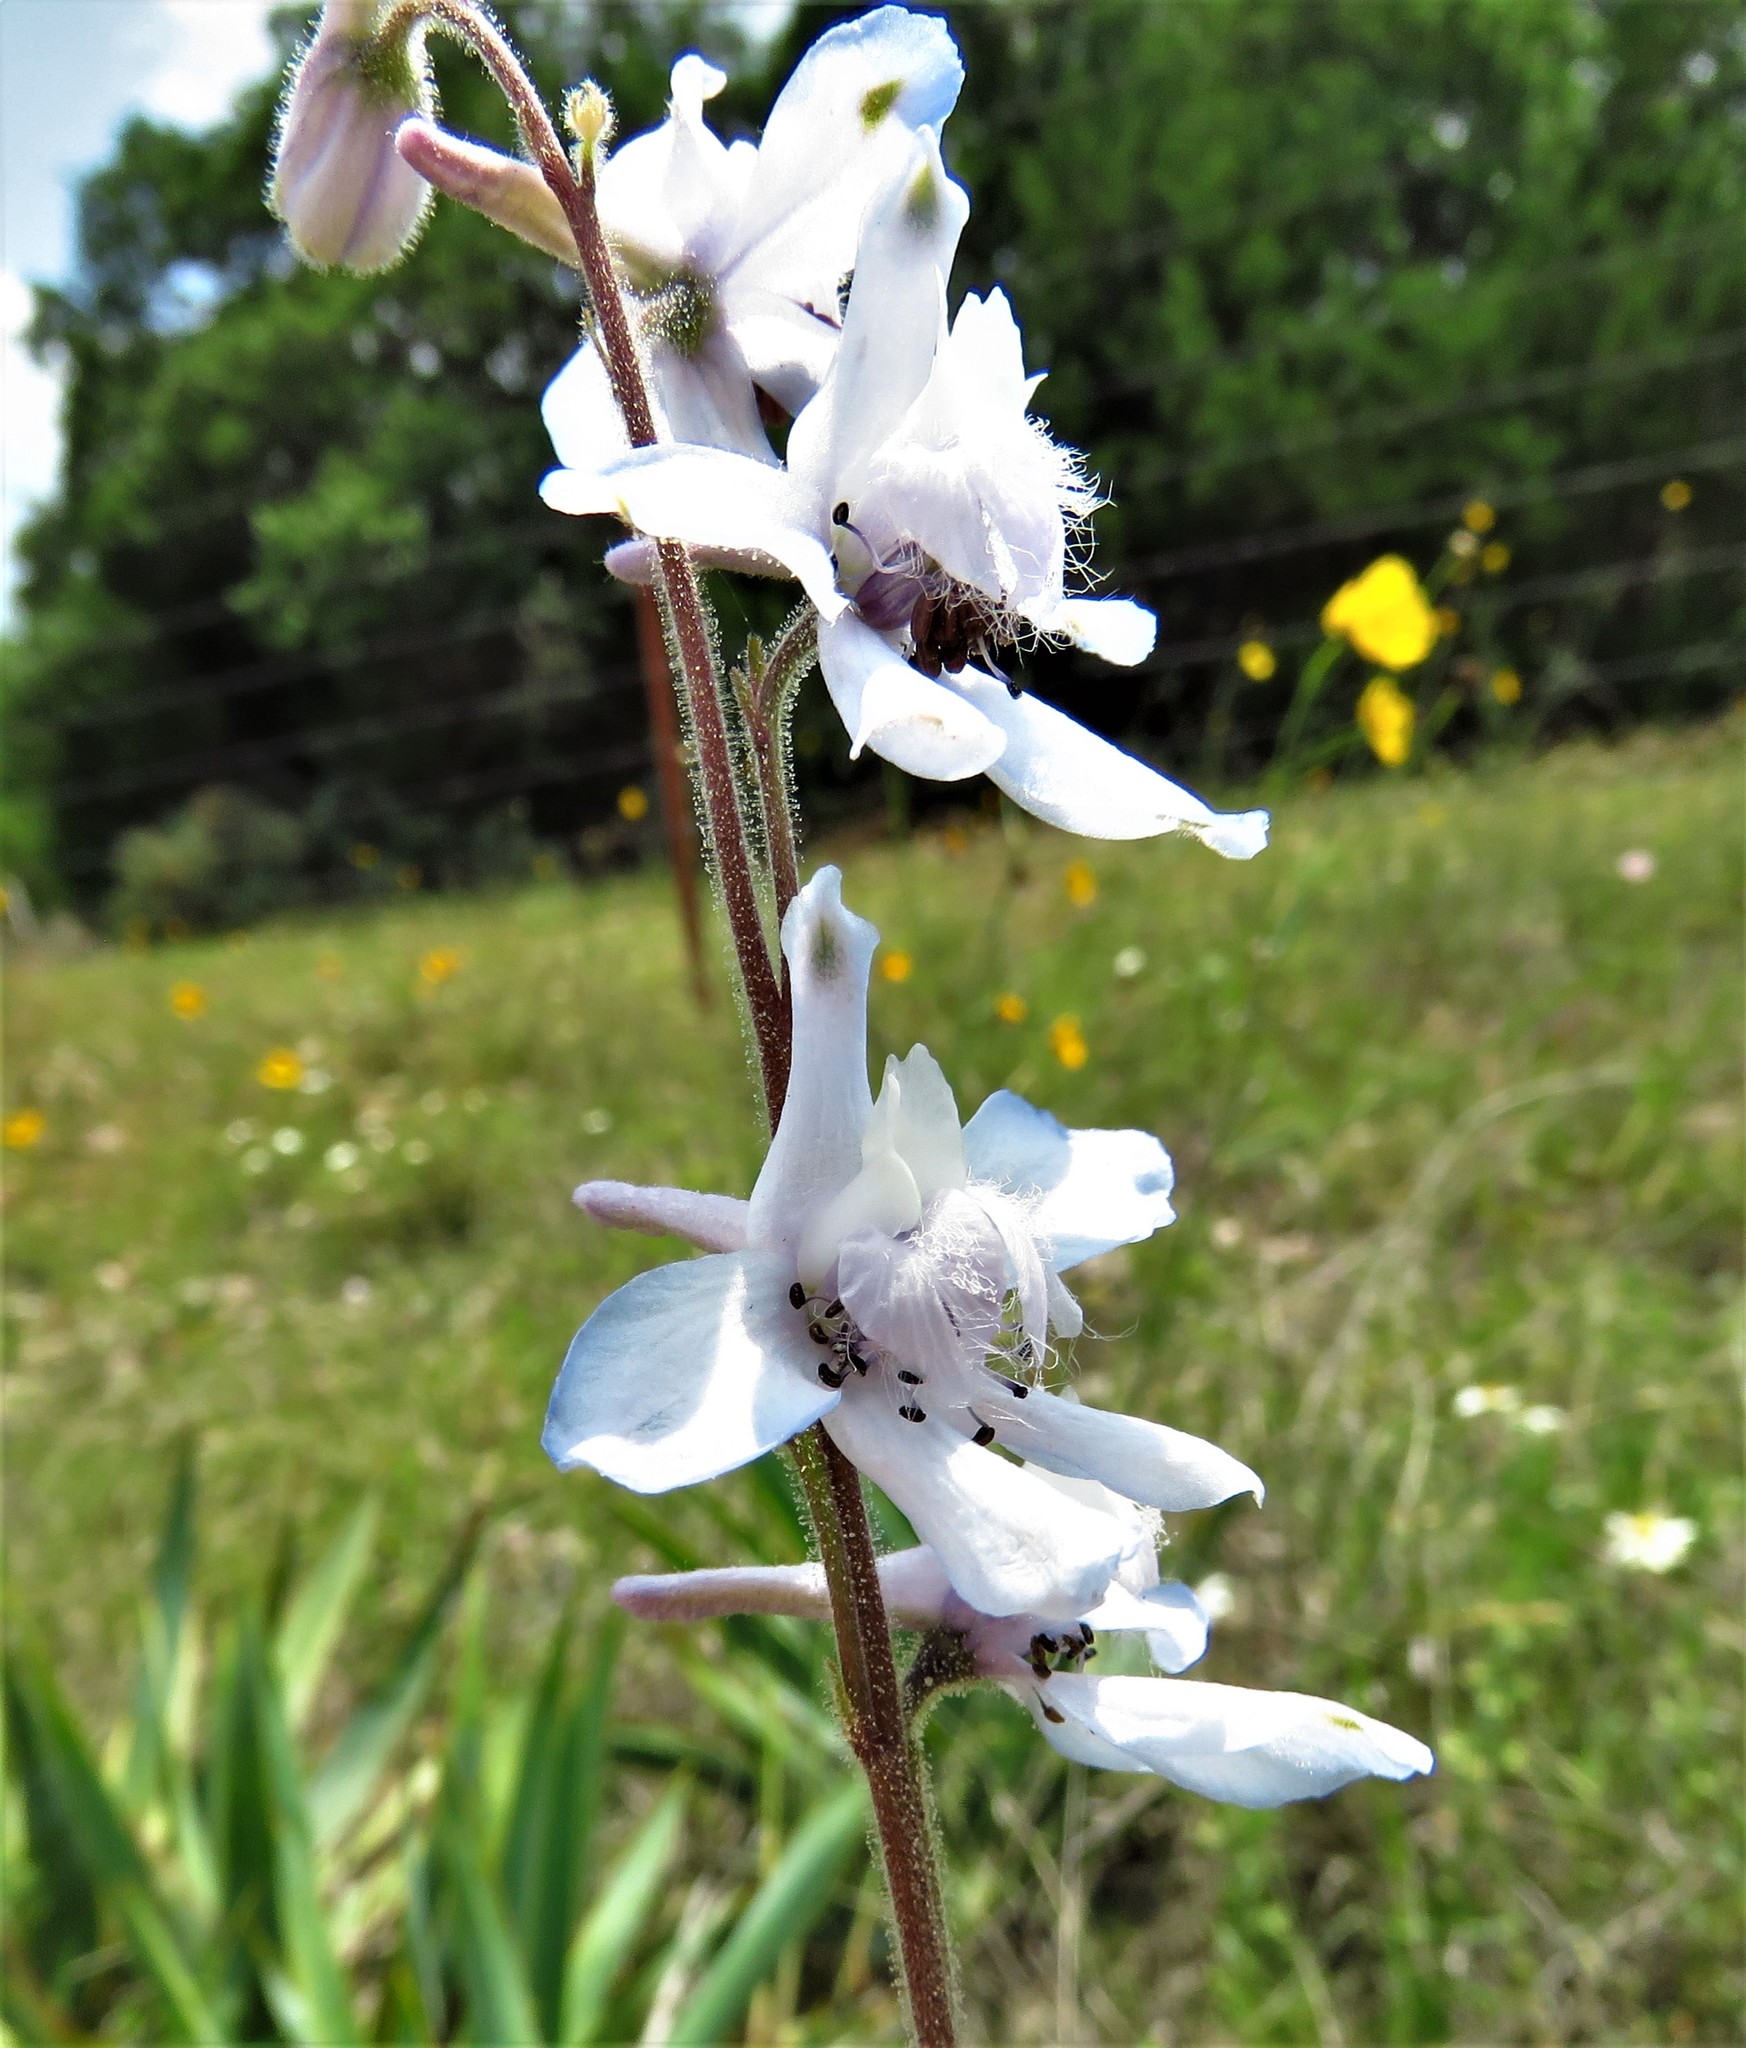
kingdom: Plantae
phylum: Tracheophyta
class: Magnoliopsida
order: Ranunculales
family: Ranunculaceae
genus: Delphinium
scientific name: Delphinium carolinianum
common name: Carolina larkspur
